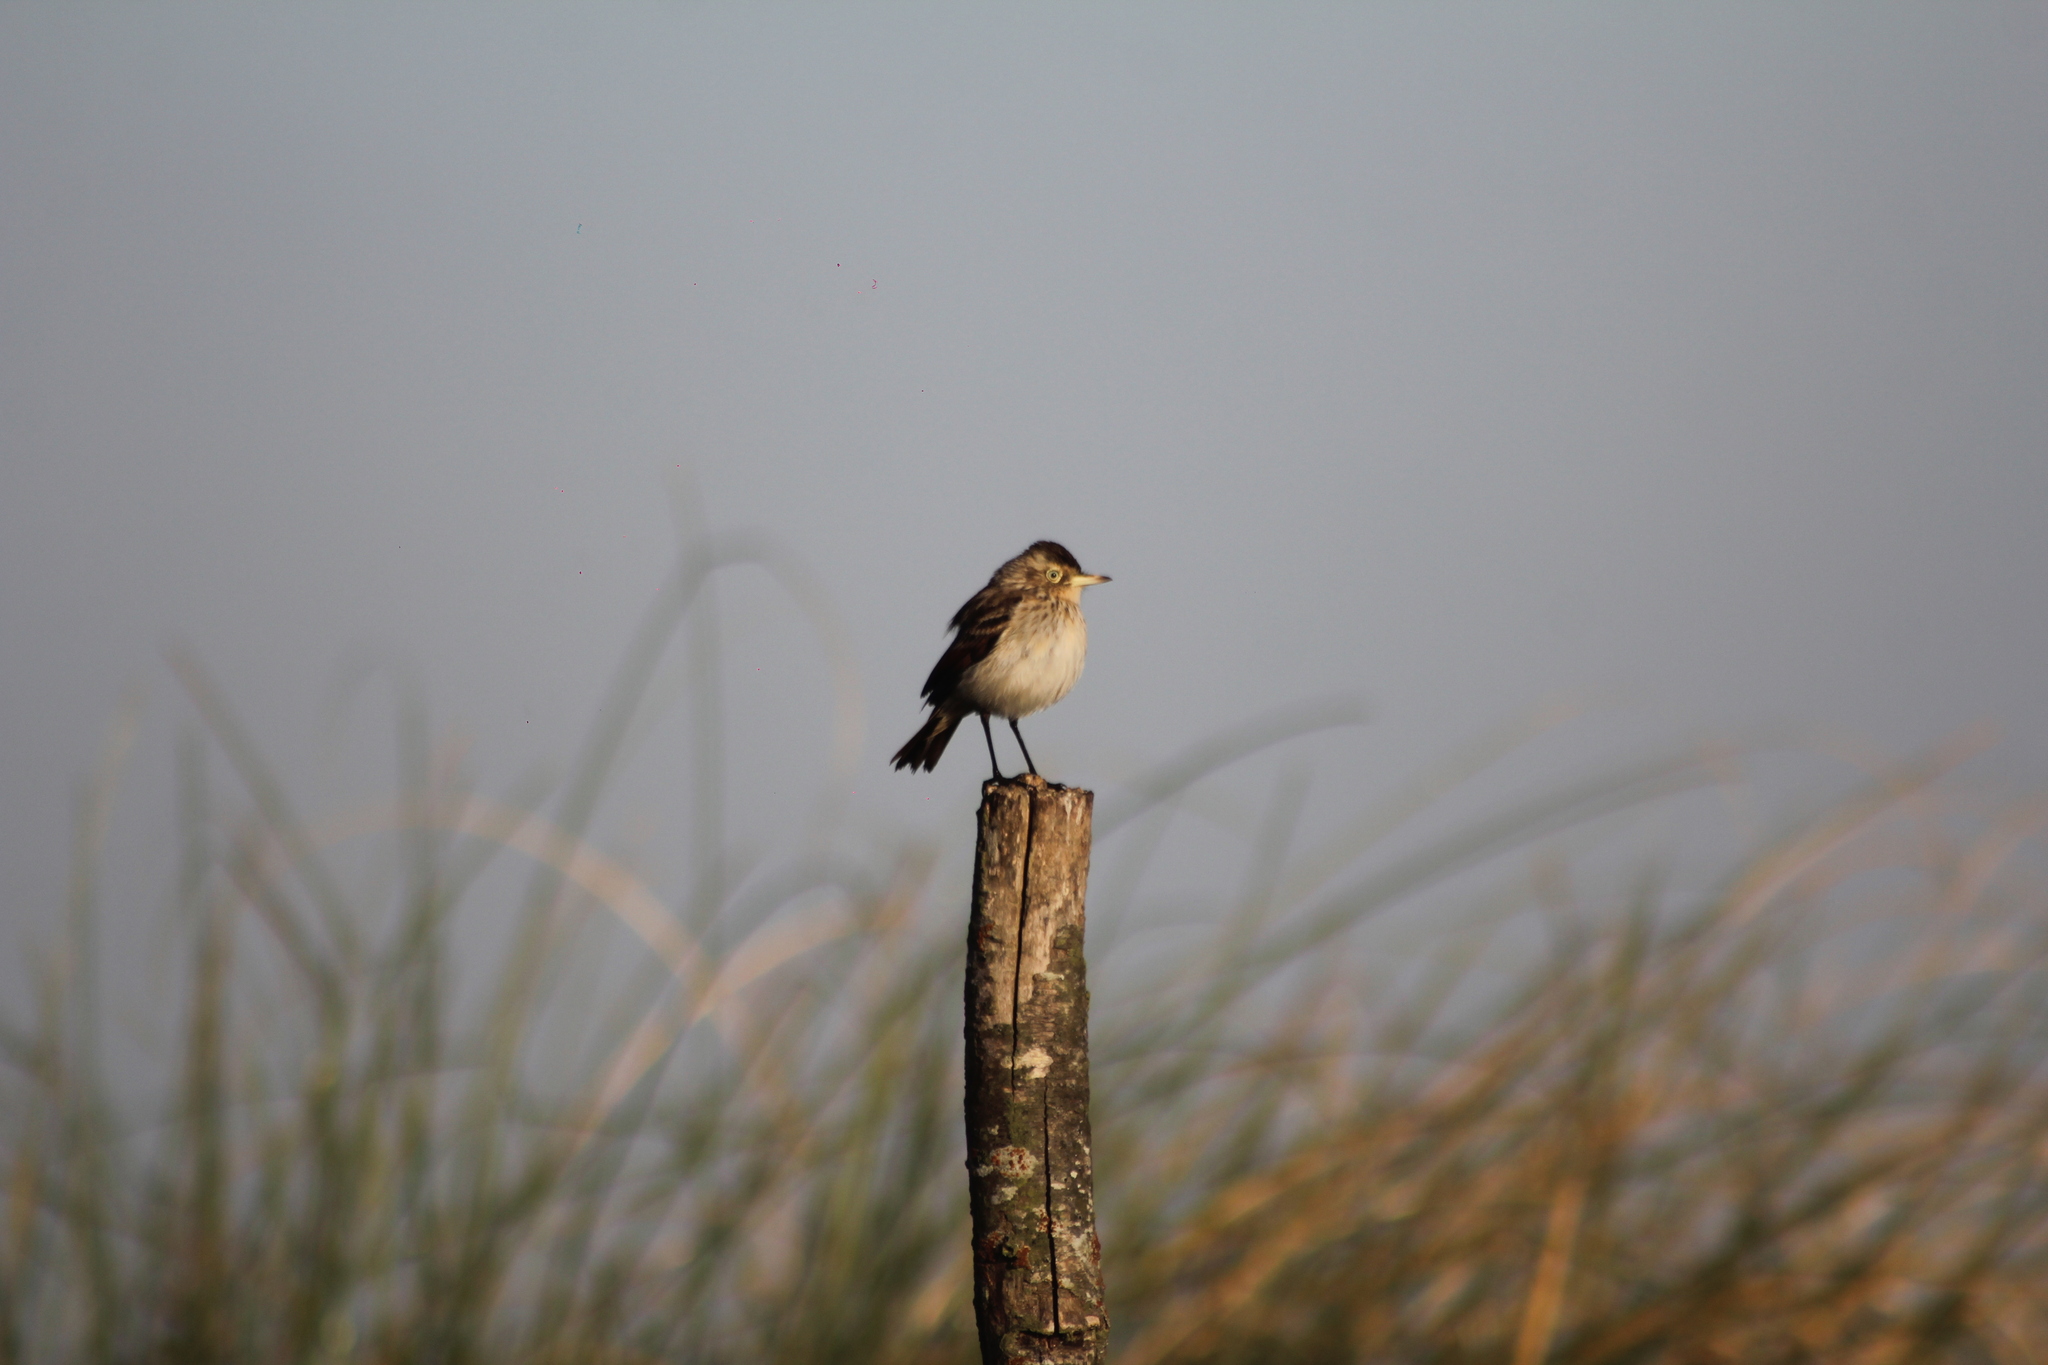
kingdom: Animalia
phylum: Chordata
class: Aves
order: Passeriformes
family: Tyrannidae
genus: Hymenops
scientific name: Hymenops perspicillatus
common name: Spectacled tyrant
